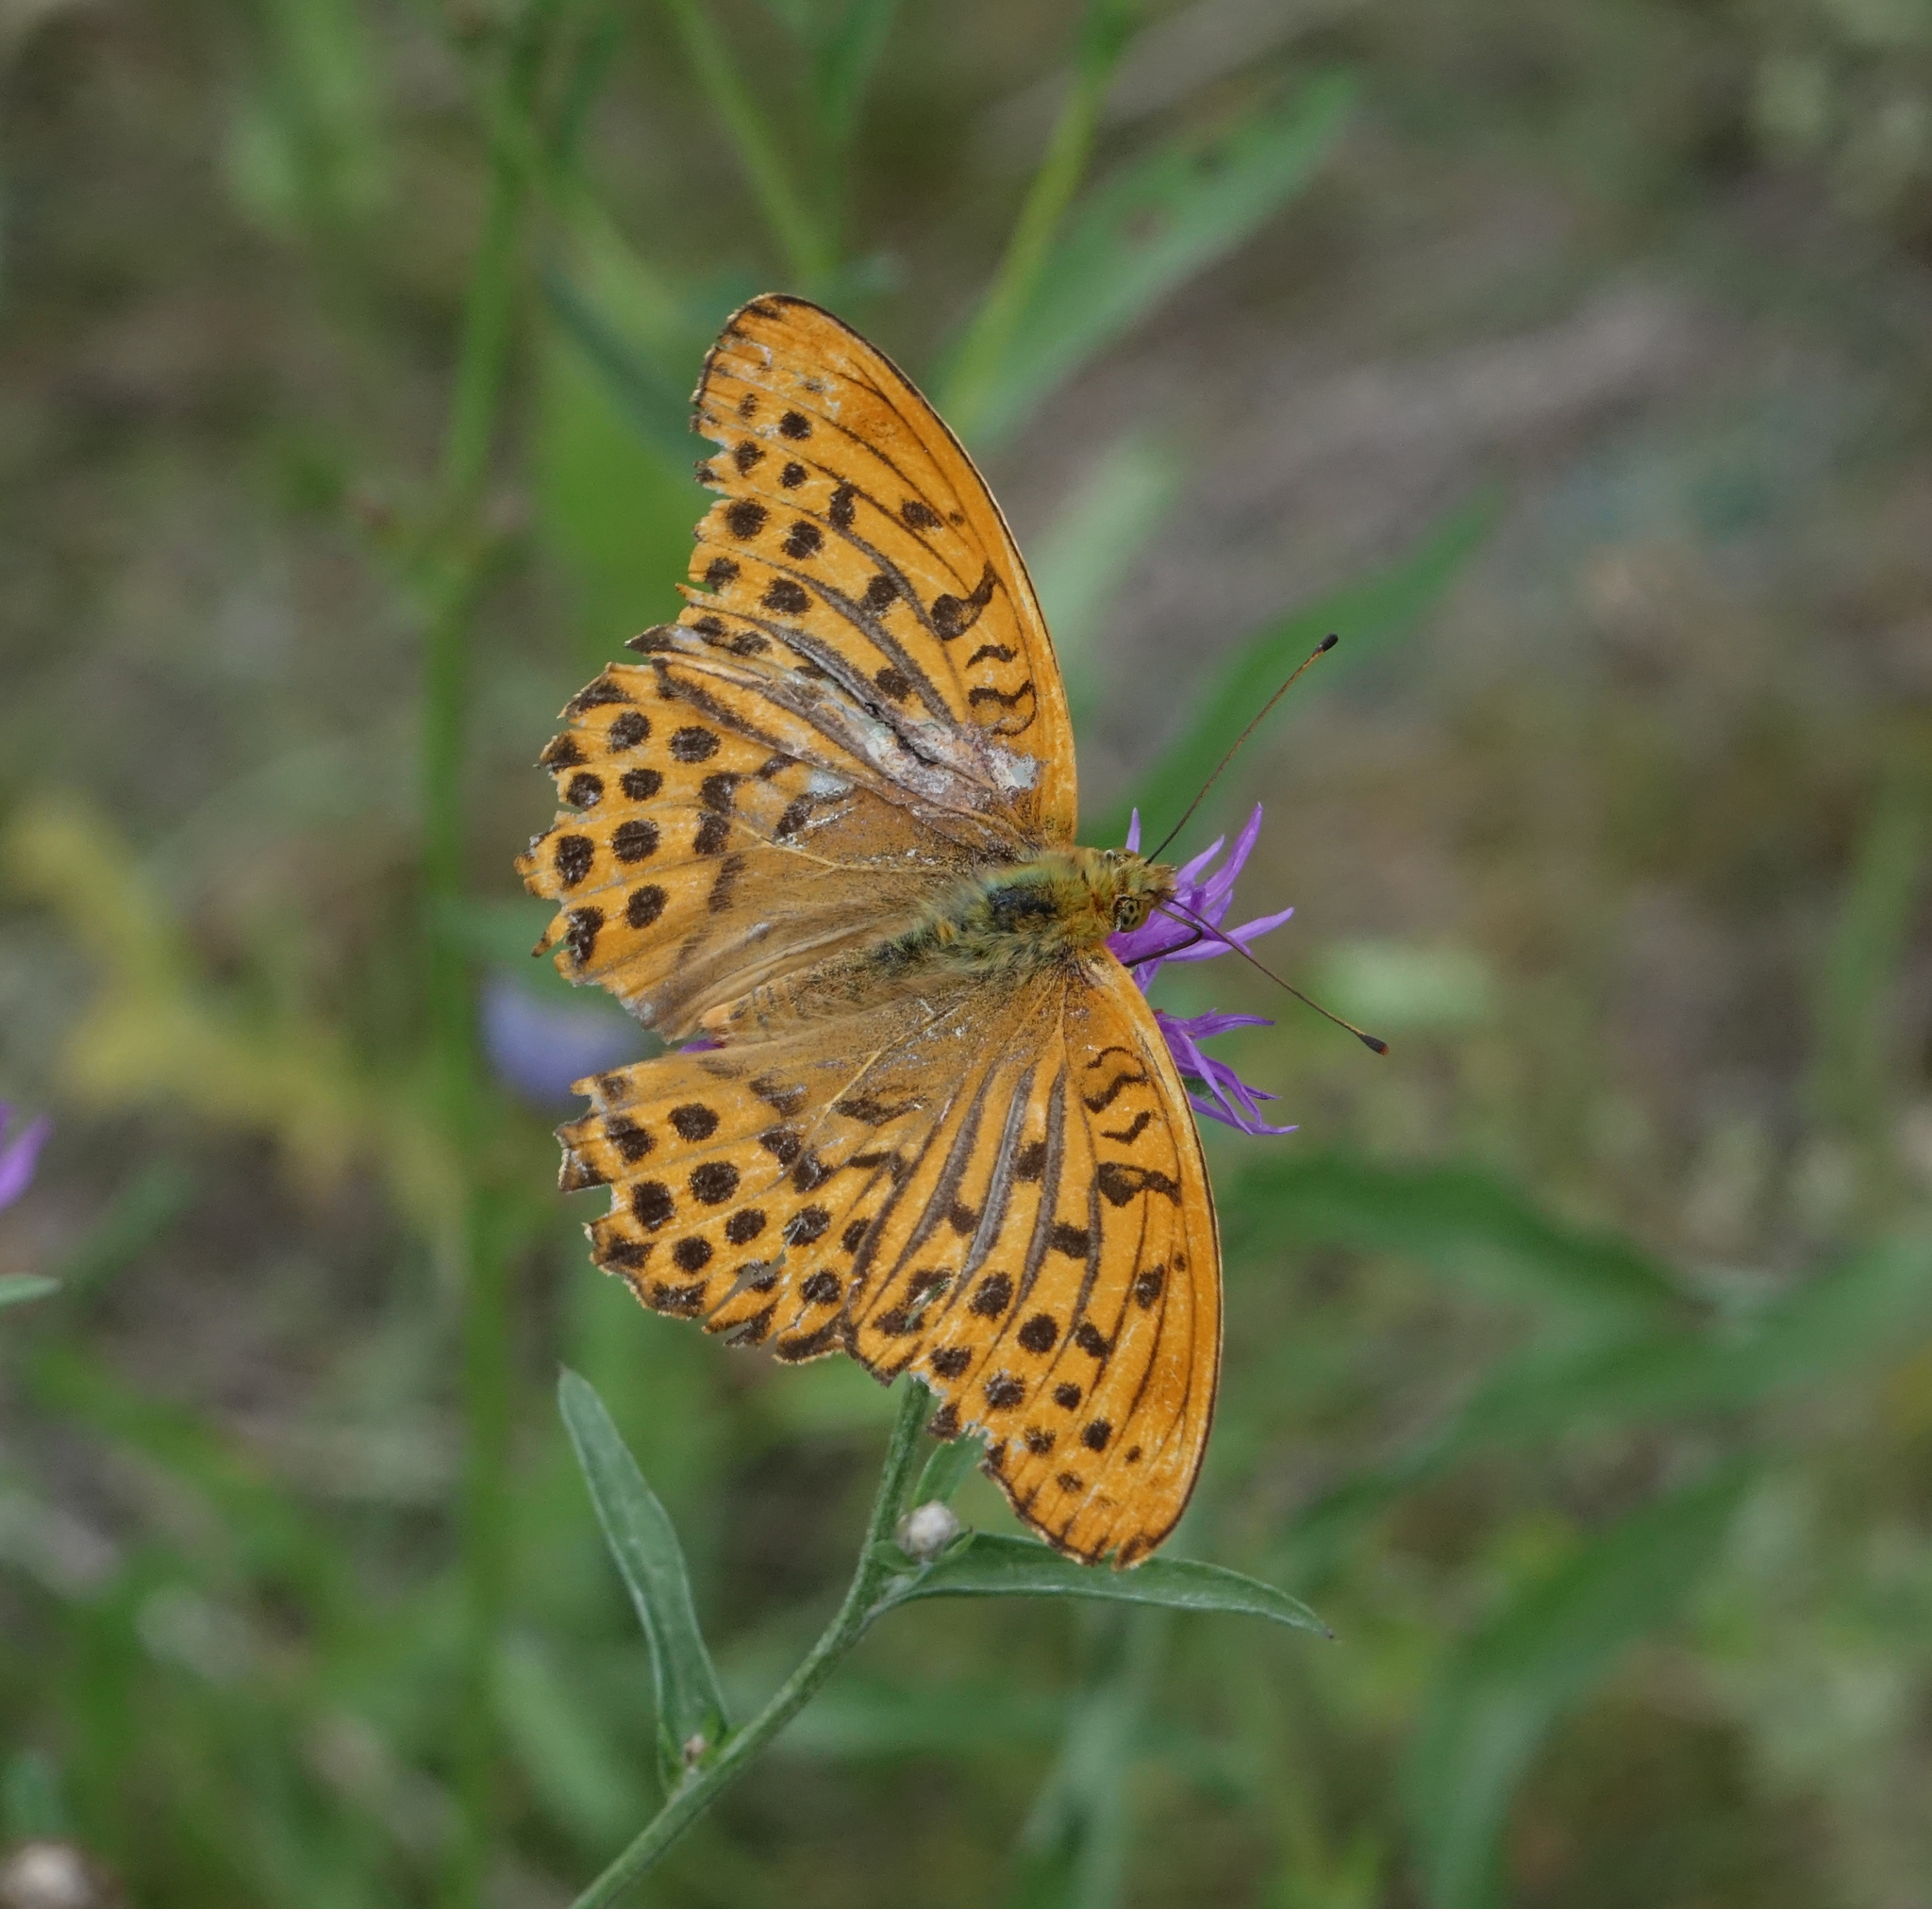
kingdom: Animalia
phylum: Arthropoda
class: Insecta
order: Lepidoptera
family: Nymphalidae
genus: Argynnis
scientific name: Argynnis paphia
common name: Silver-washed fritillary
